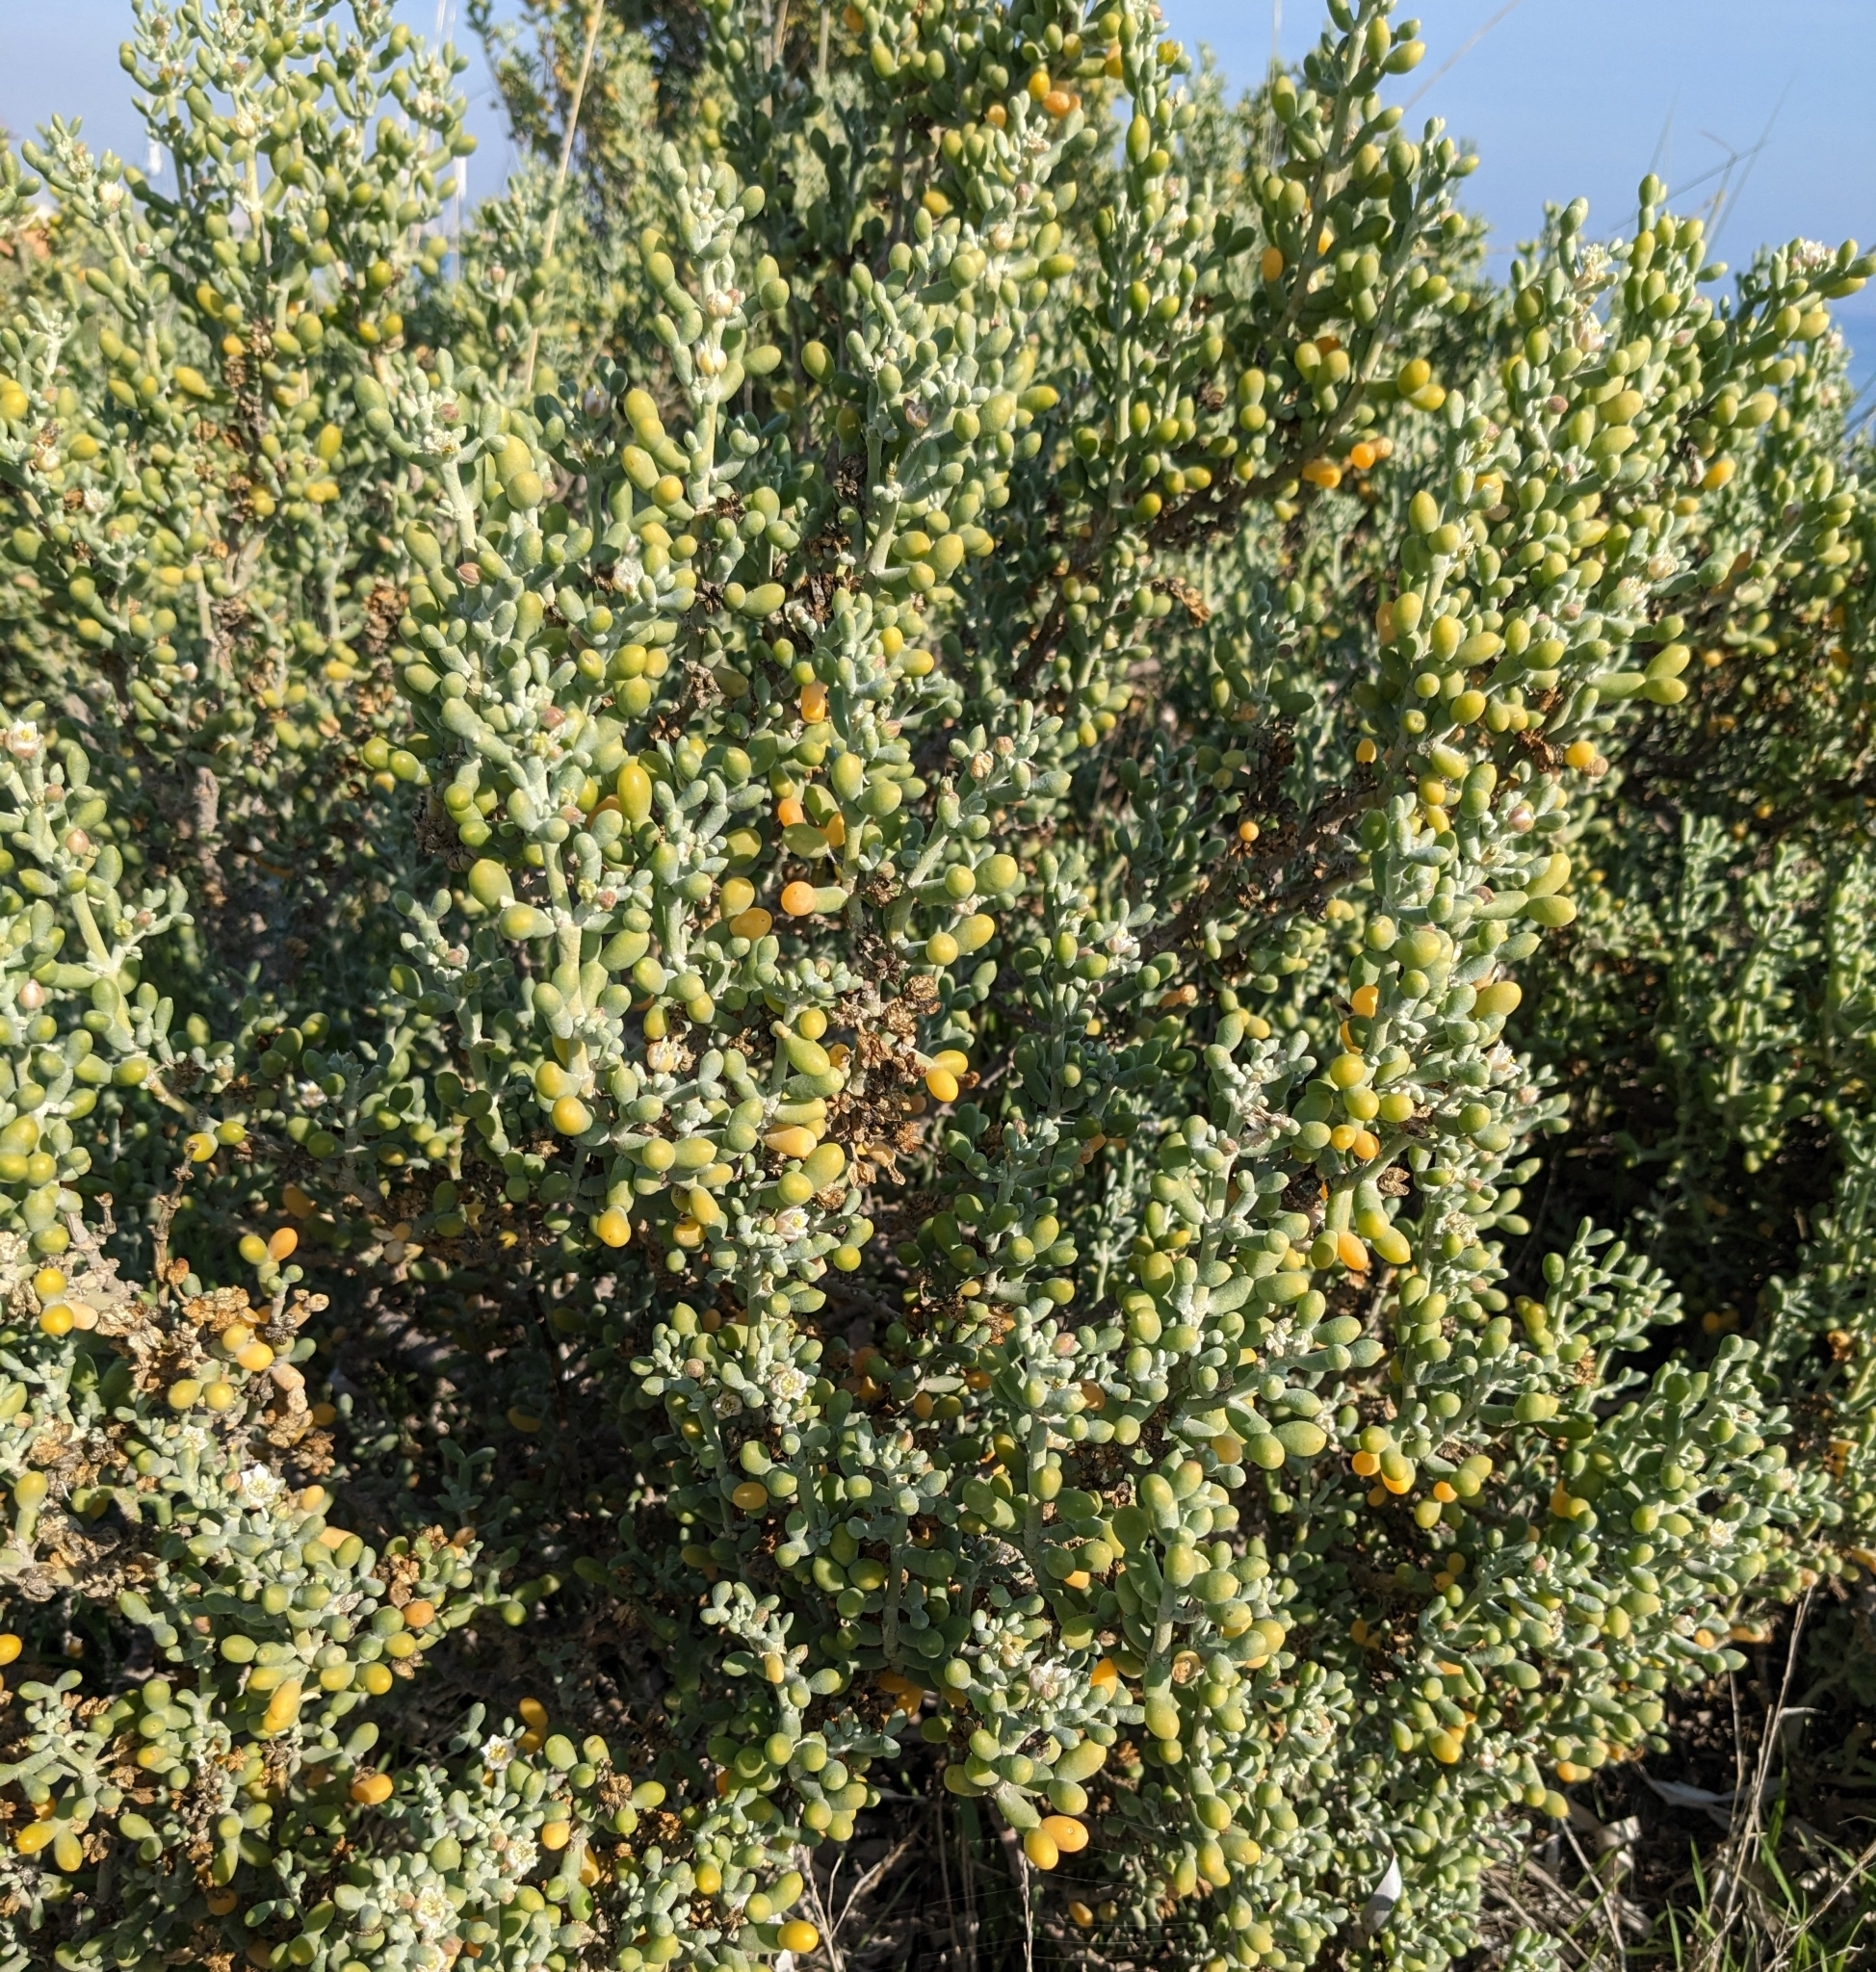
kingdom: Plantae
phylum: Tracheophyta
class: Magnoliopsida
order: Zygophyllales
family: Zygophyllaceae
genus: Tetraena
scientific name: Tetraena alba
